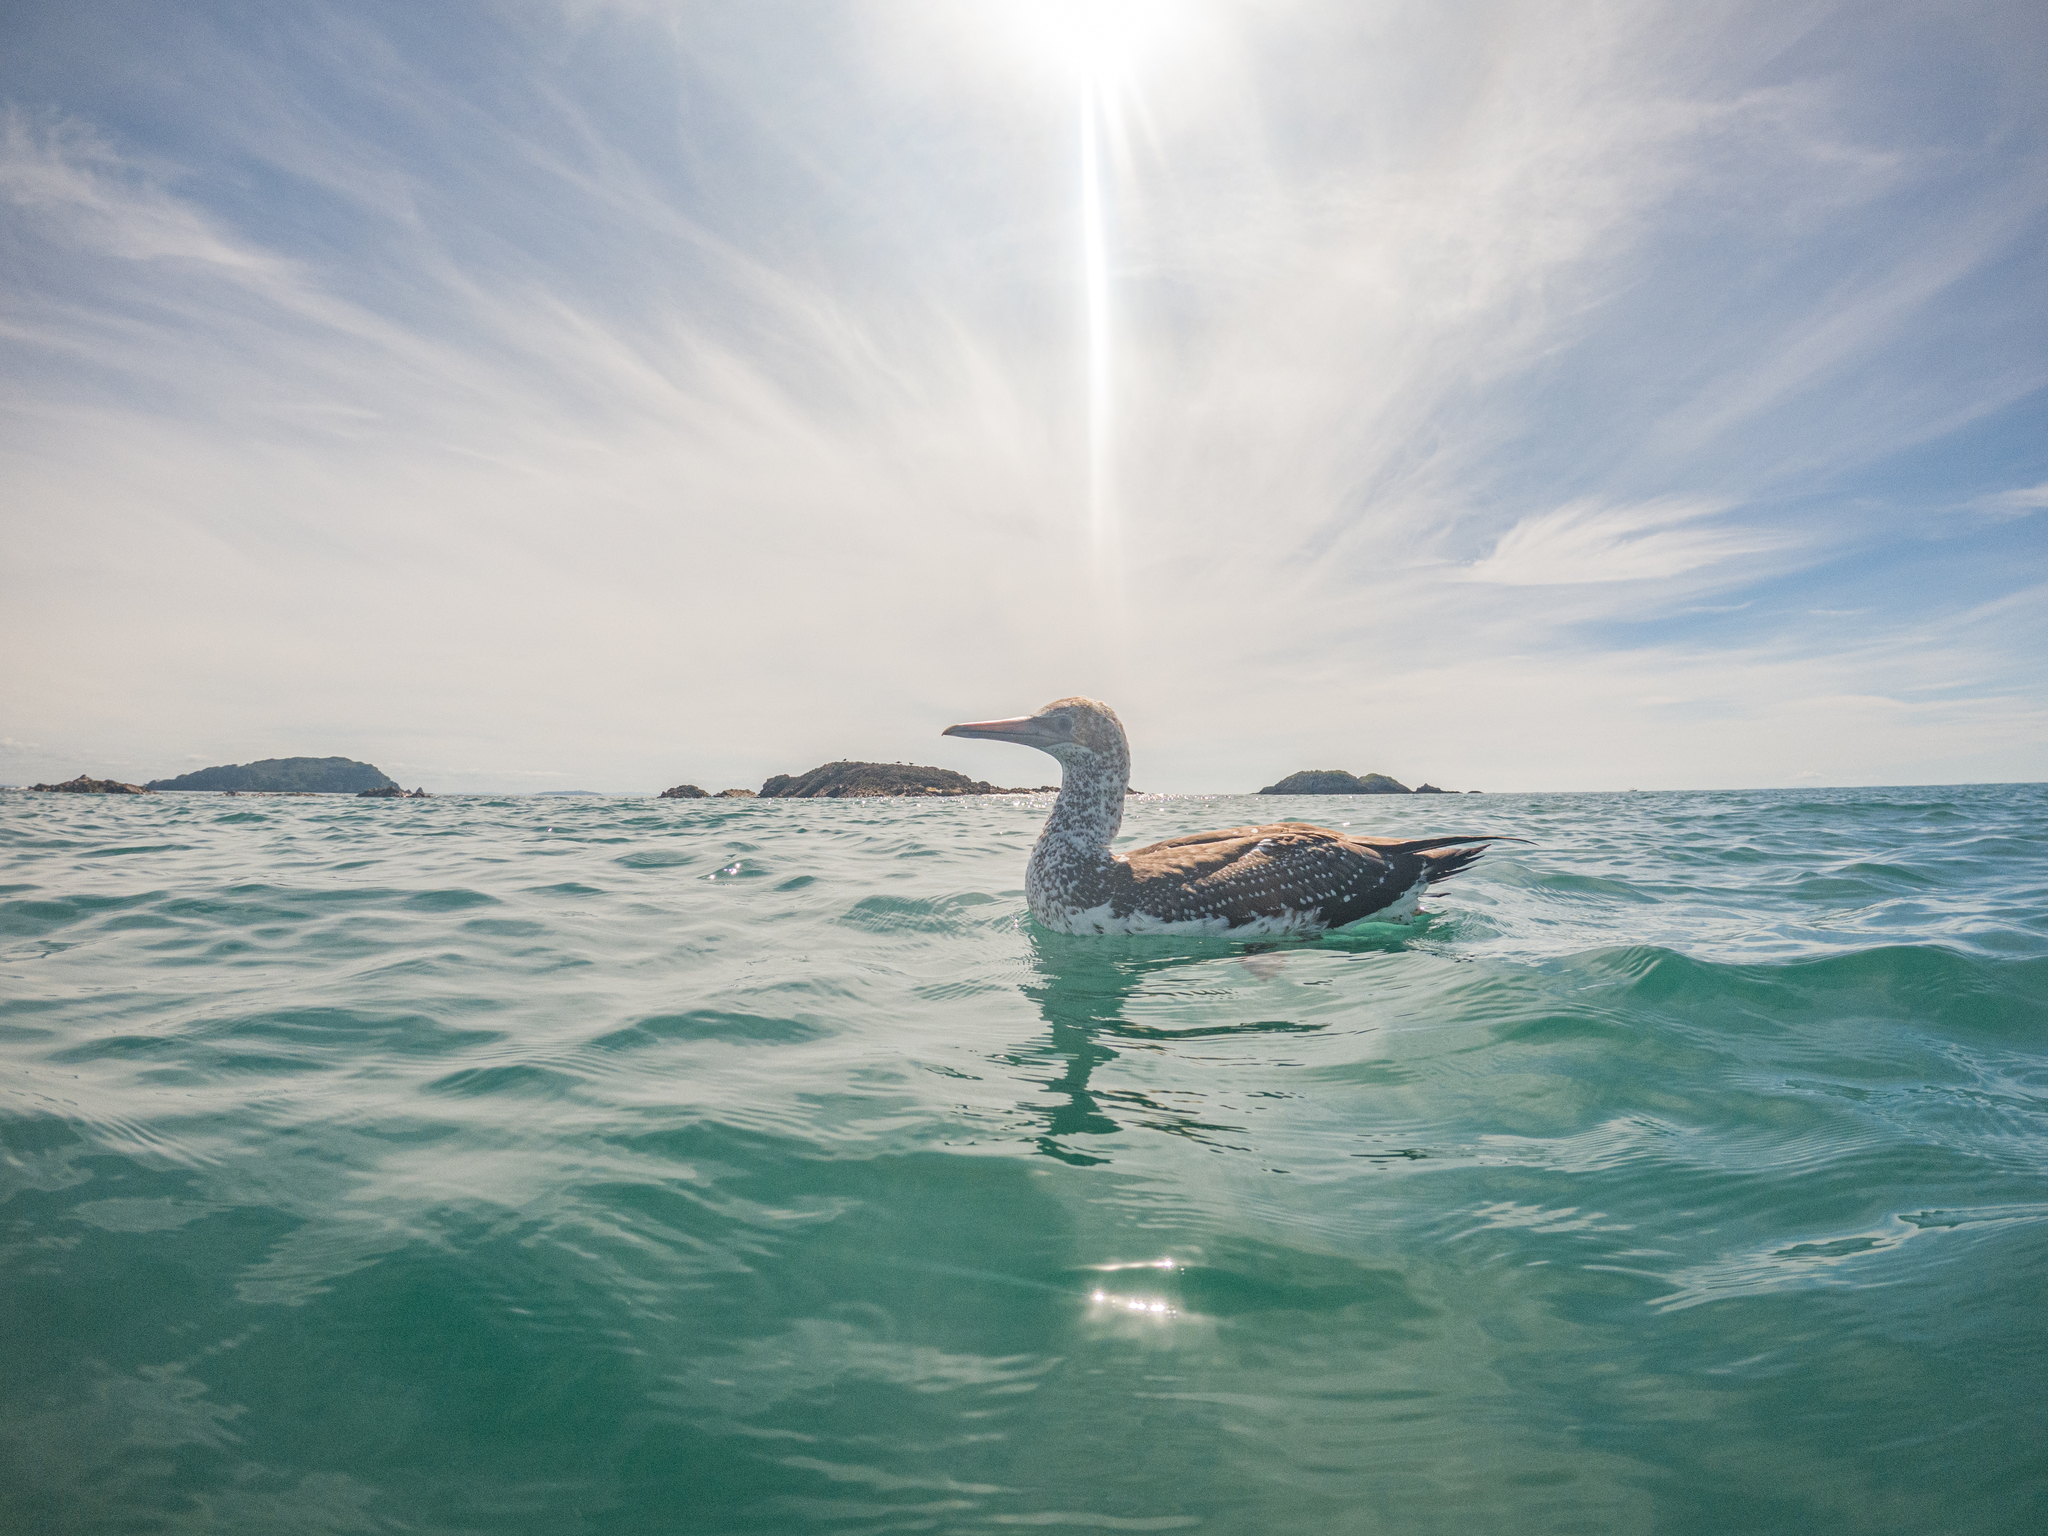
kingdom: Animalia
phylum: Chordata
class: Aves
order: Suliformes
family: Sulidae
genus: Morus
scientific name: Morus serrator
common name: Australasian gannet
